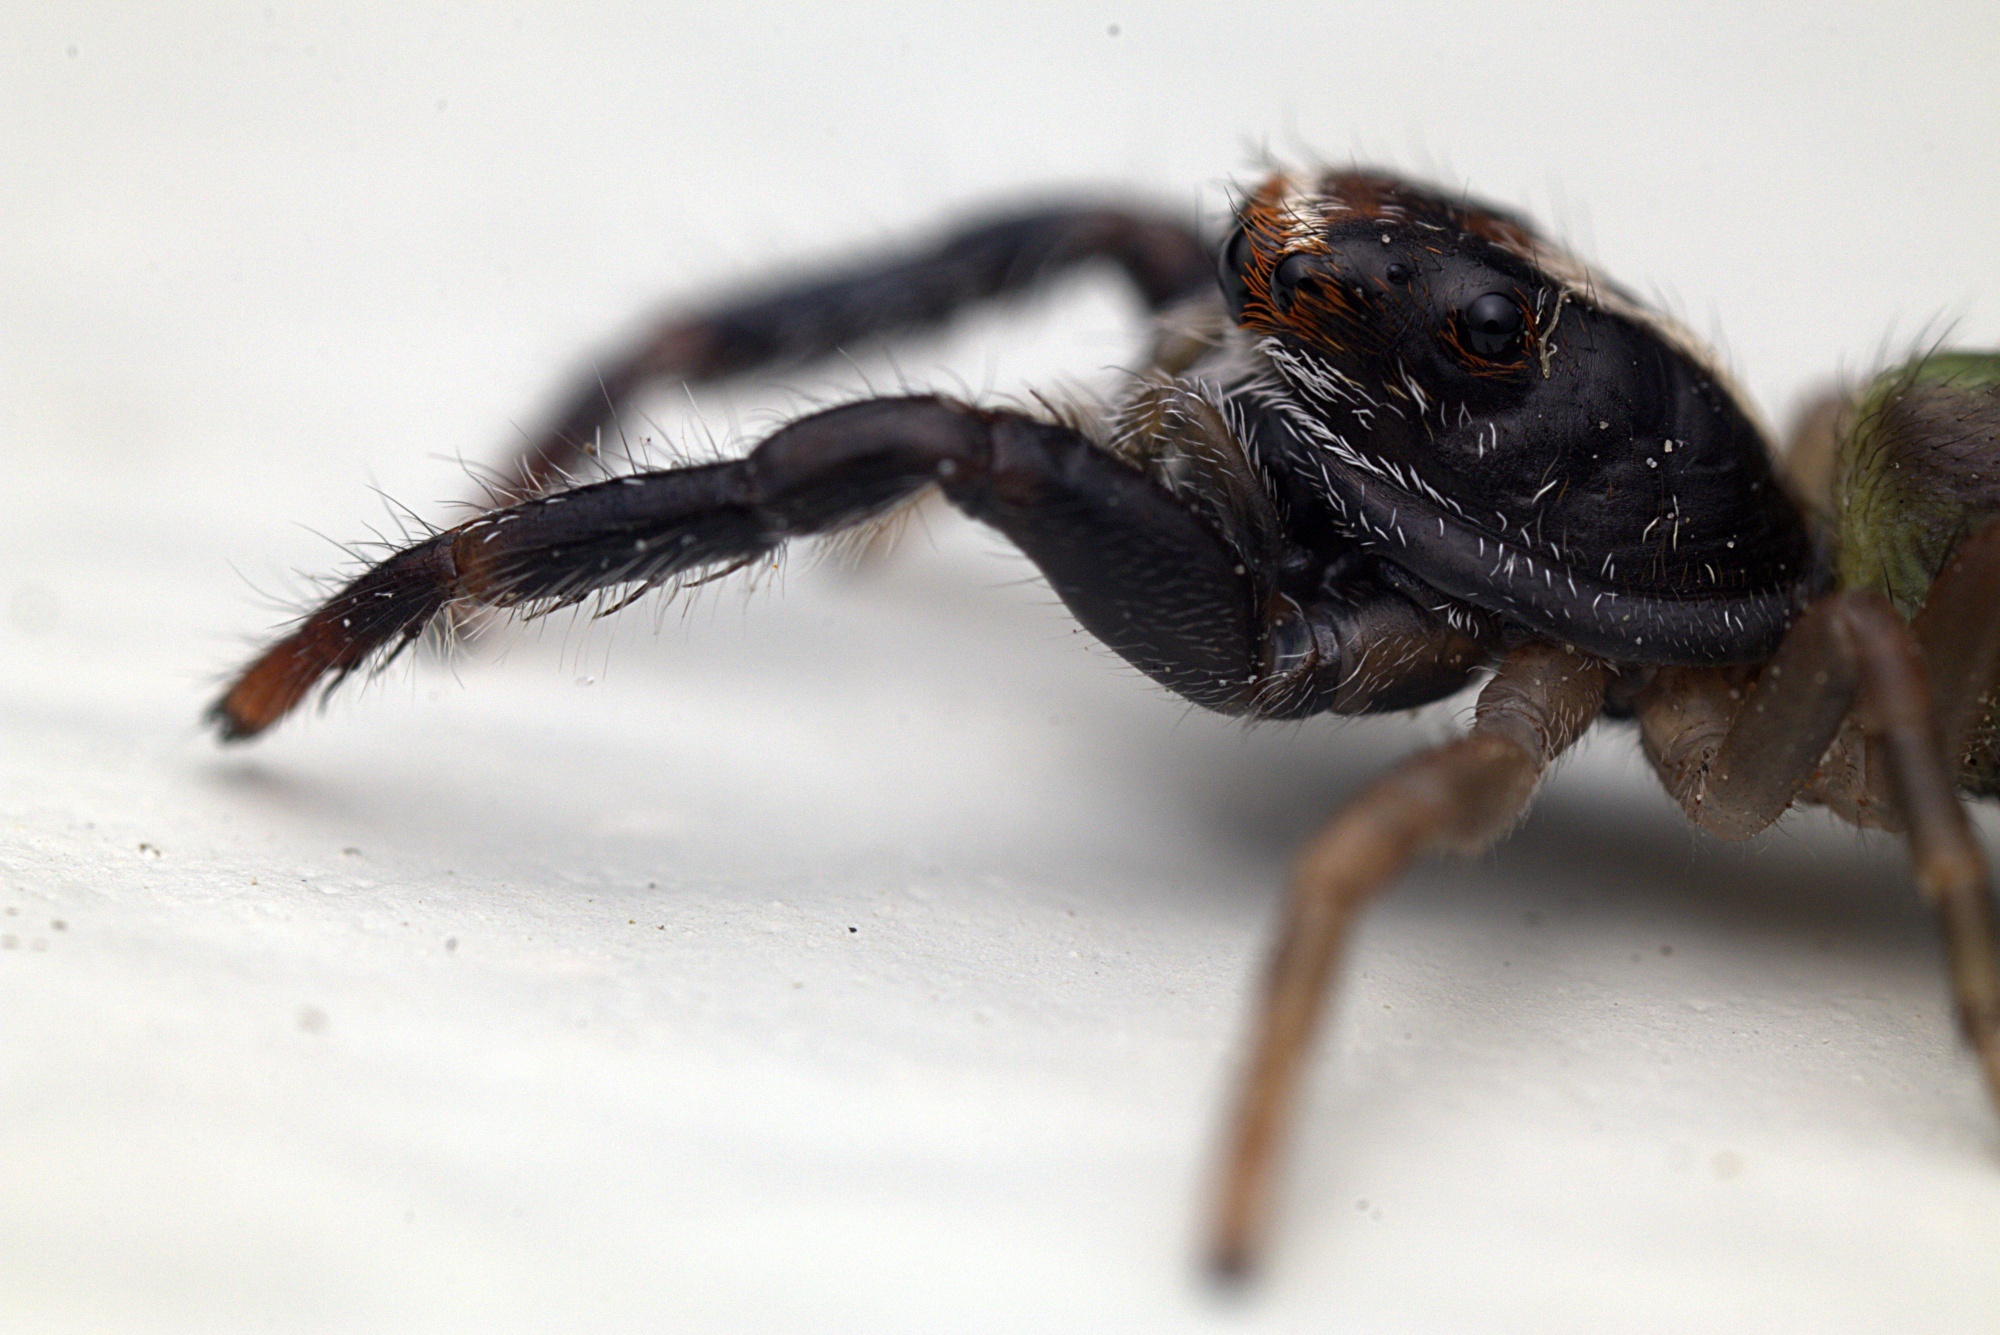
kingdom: Animalia
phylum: Arthropoda
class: Arachnida
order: Araneae
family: Salticidae
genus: Trite
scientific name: Trite planiceps
